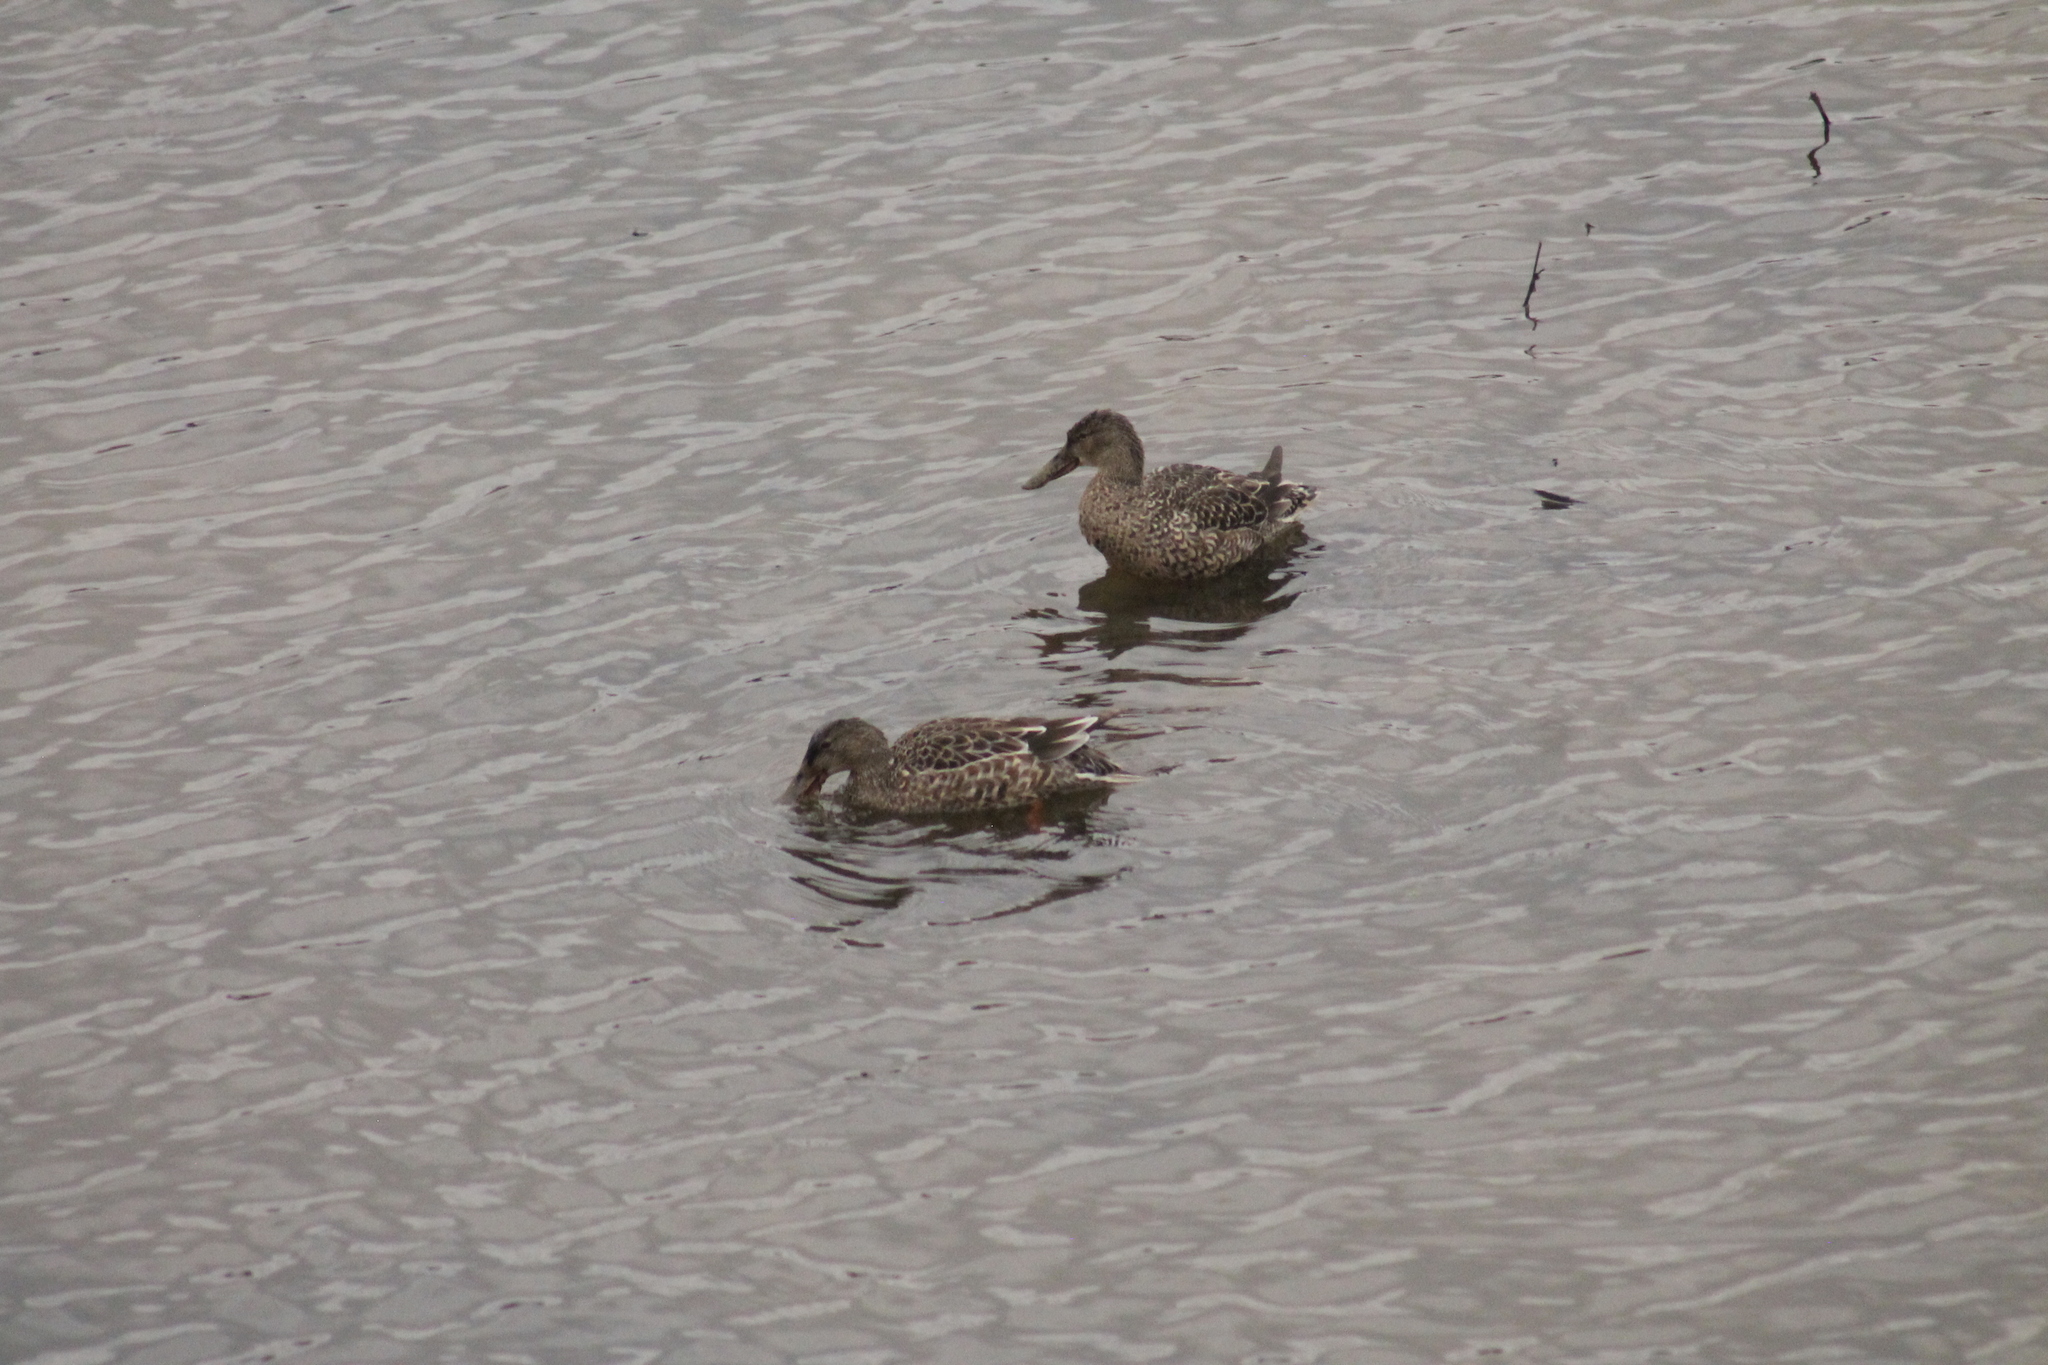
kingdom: Animalia
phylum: Chordata
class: Aves
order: Anseriformes
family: Anatidae
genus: Spatula
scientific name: Spatula clypeata
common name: Northern shoveler
